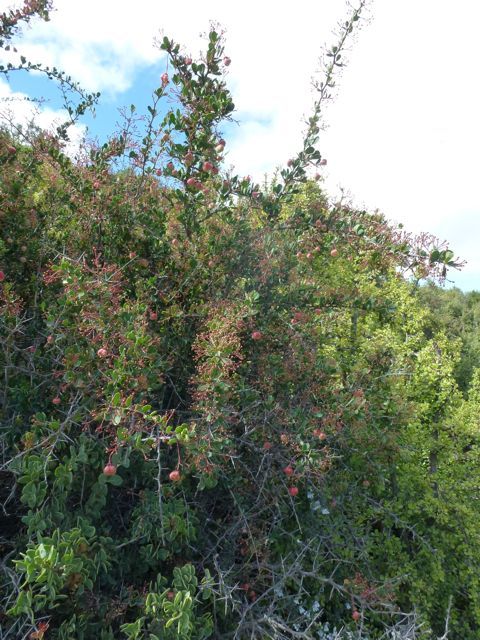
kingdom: Plantae
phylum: Tracheophyta
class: Magnoliopsida
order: Celastrales
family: Celastraceae
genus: Gloveria
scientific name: Gloveria integrifolia
